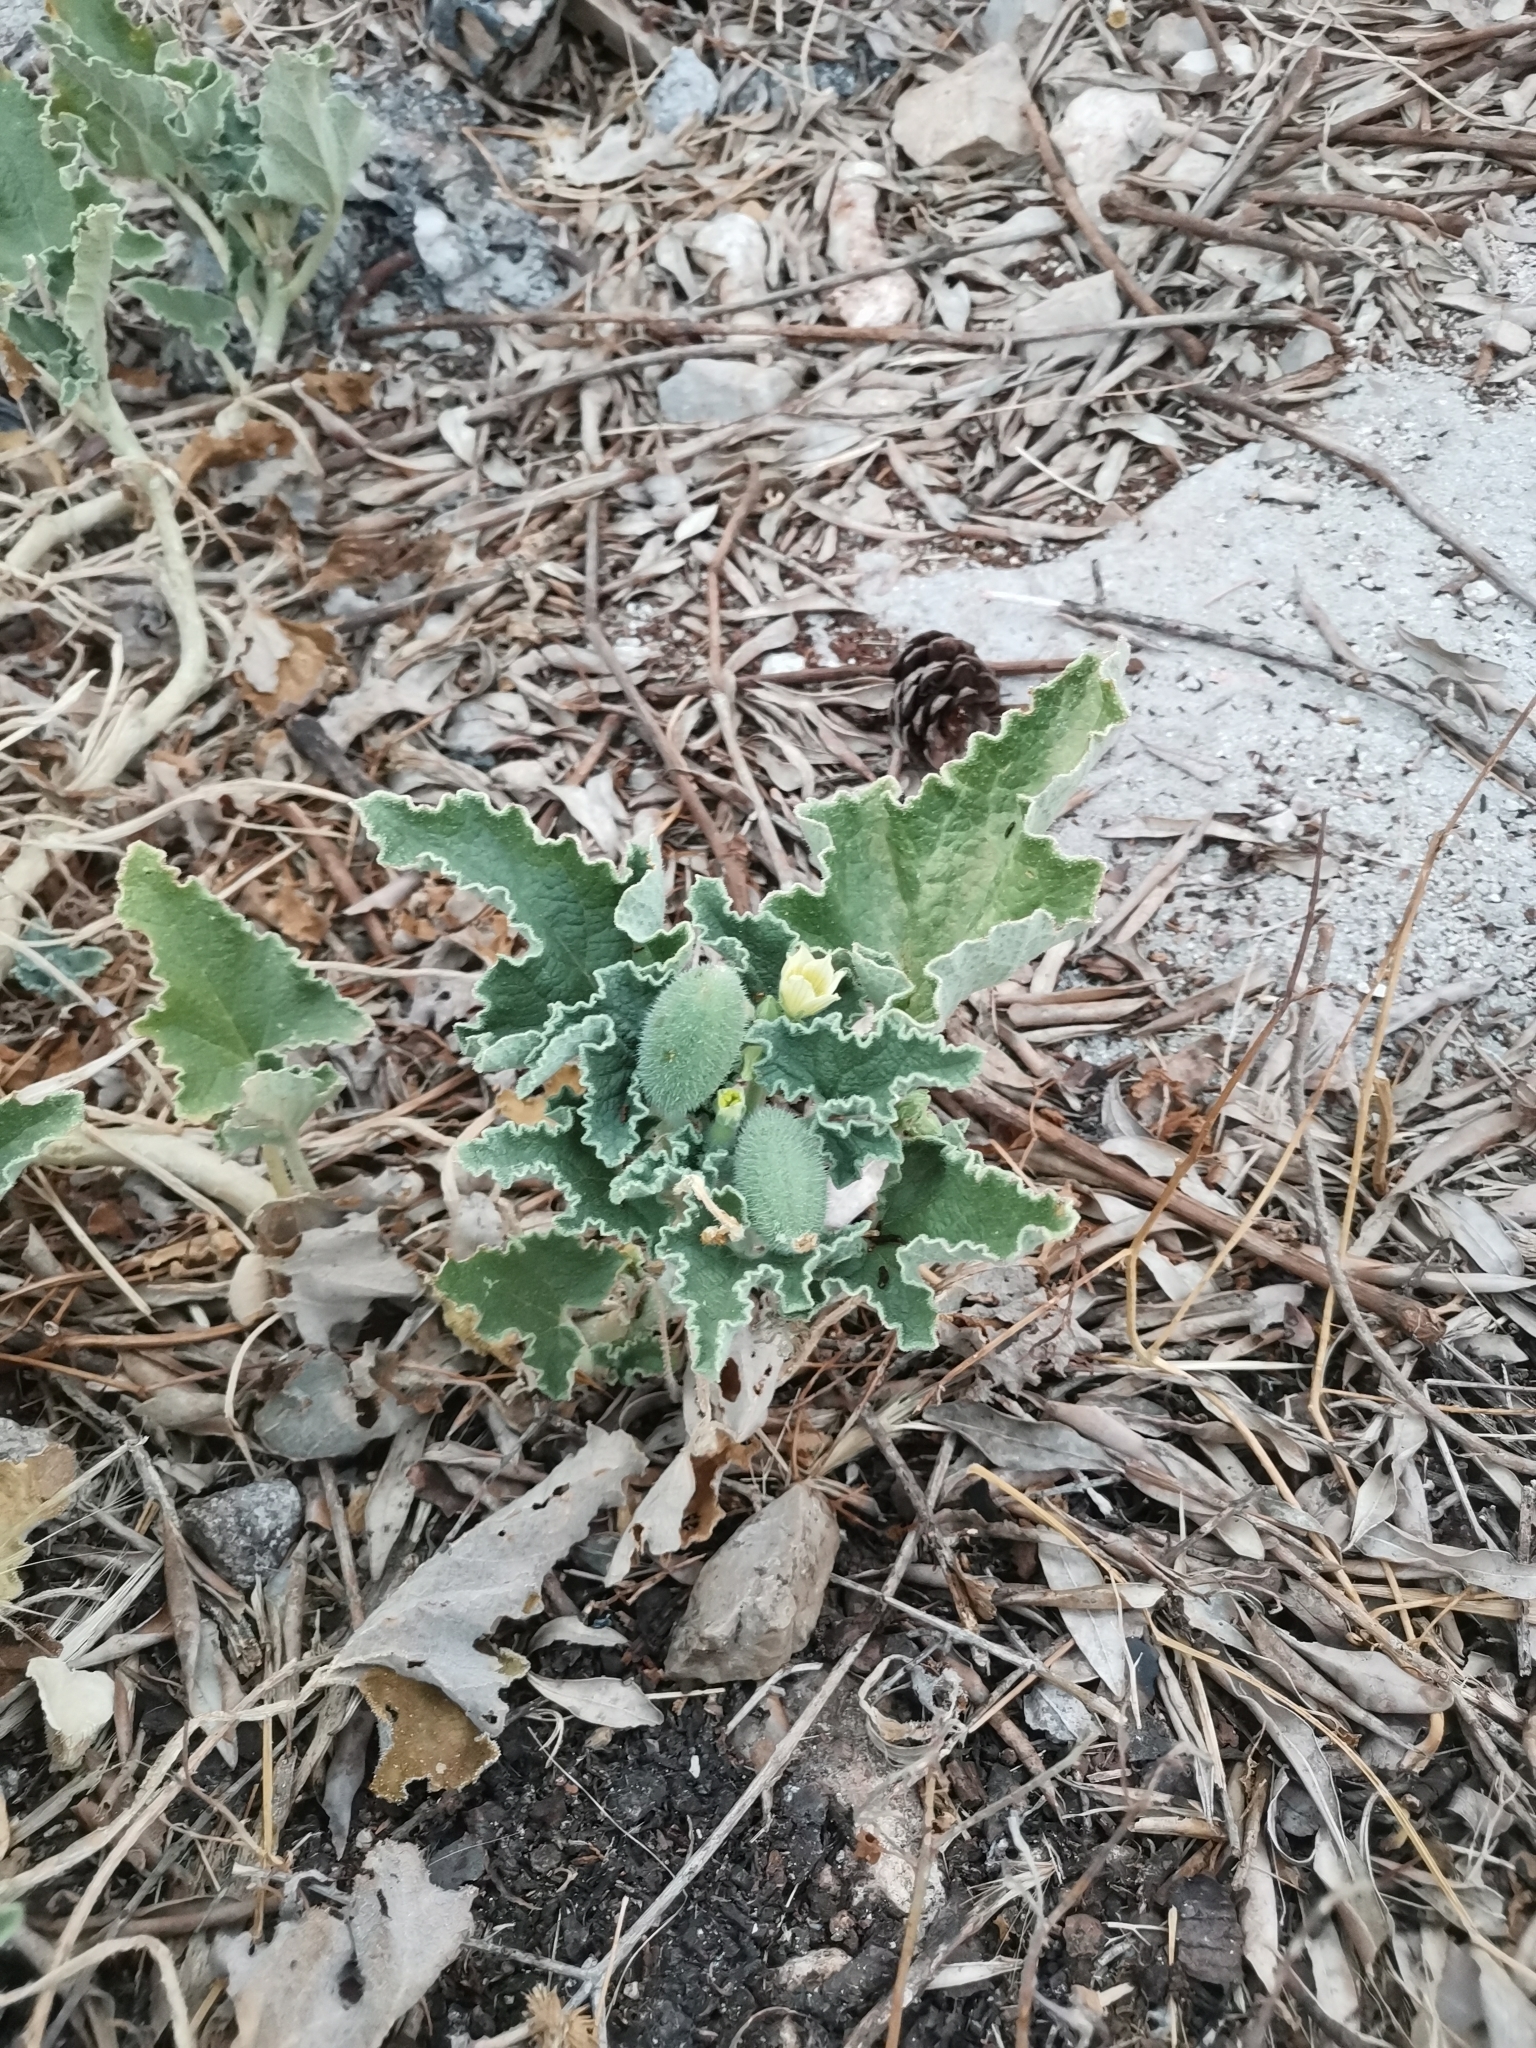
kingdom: Plantae
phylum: Tracheophyta
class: Magnoliopsida
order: Cucurbitales
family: Cucurbitaceae
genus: Ecballium
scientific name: Ecballium elaterium
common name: Squirting cucumber
